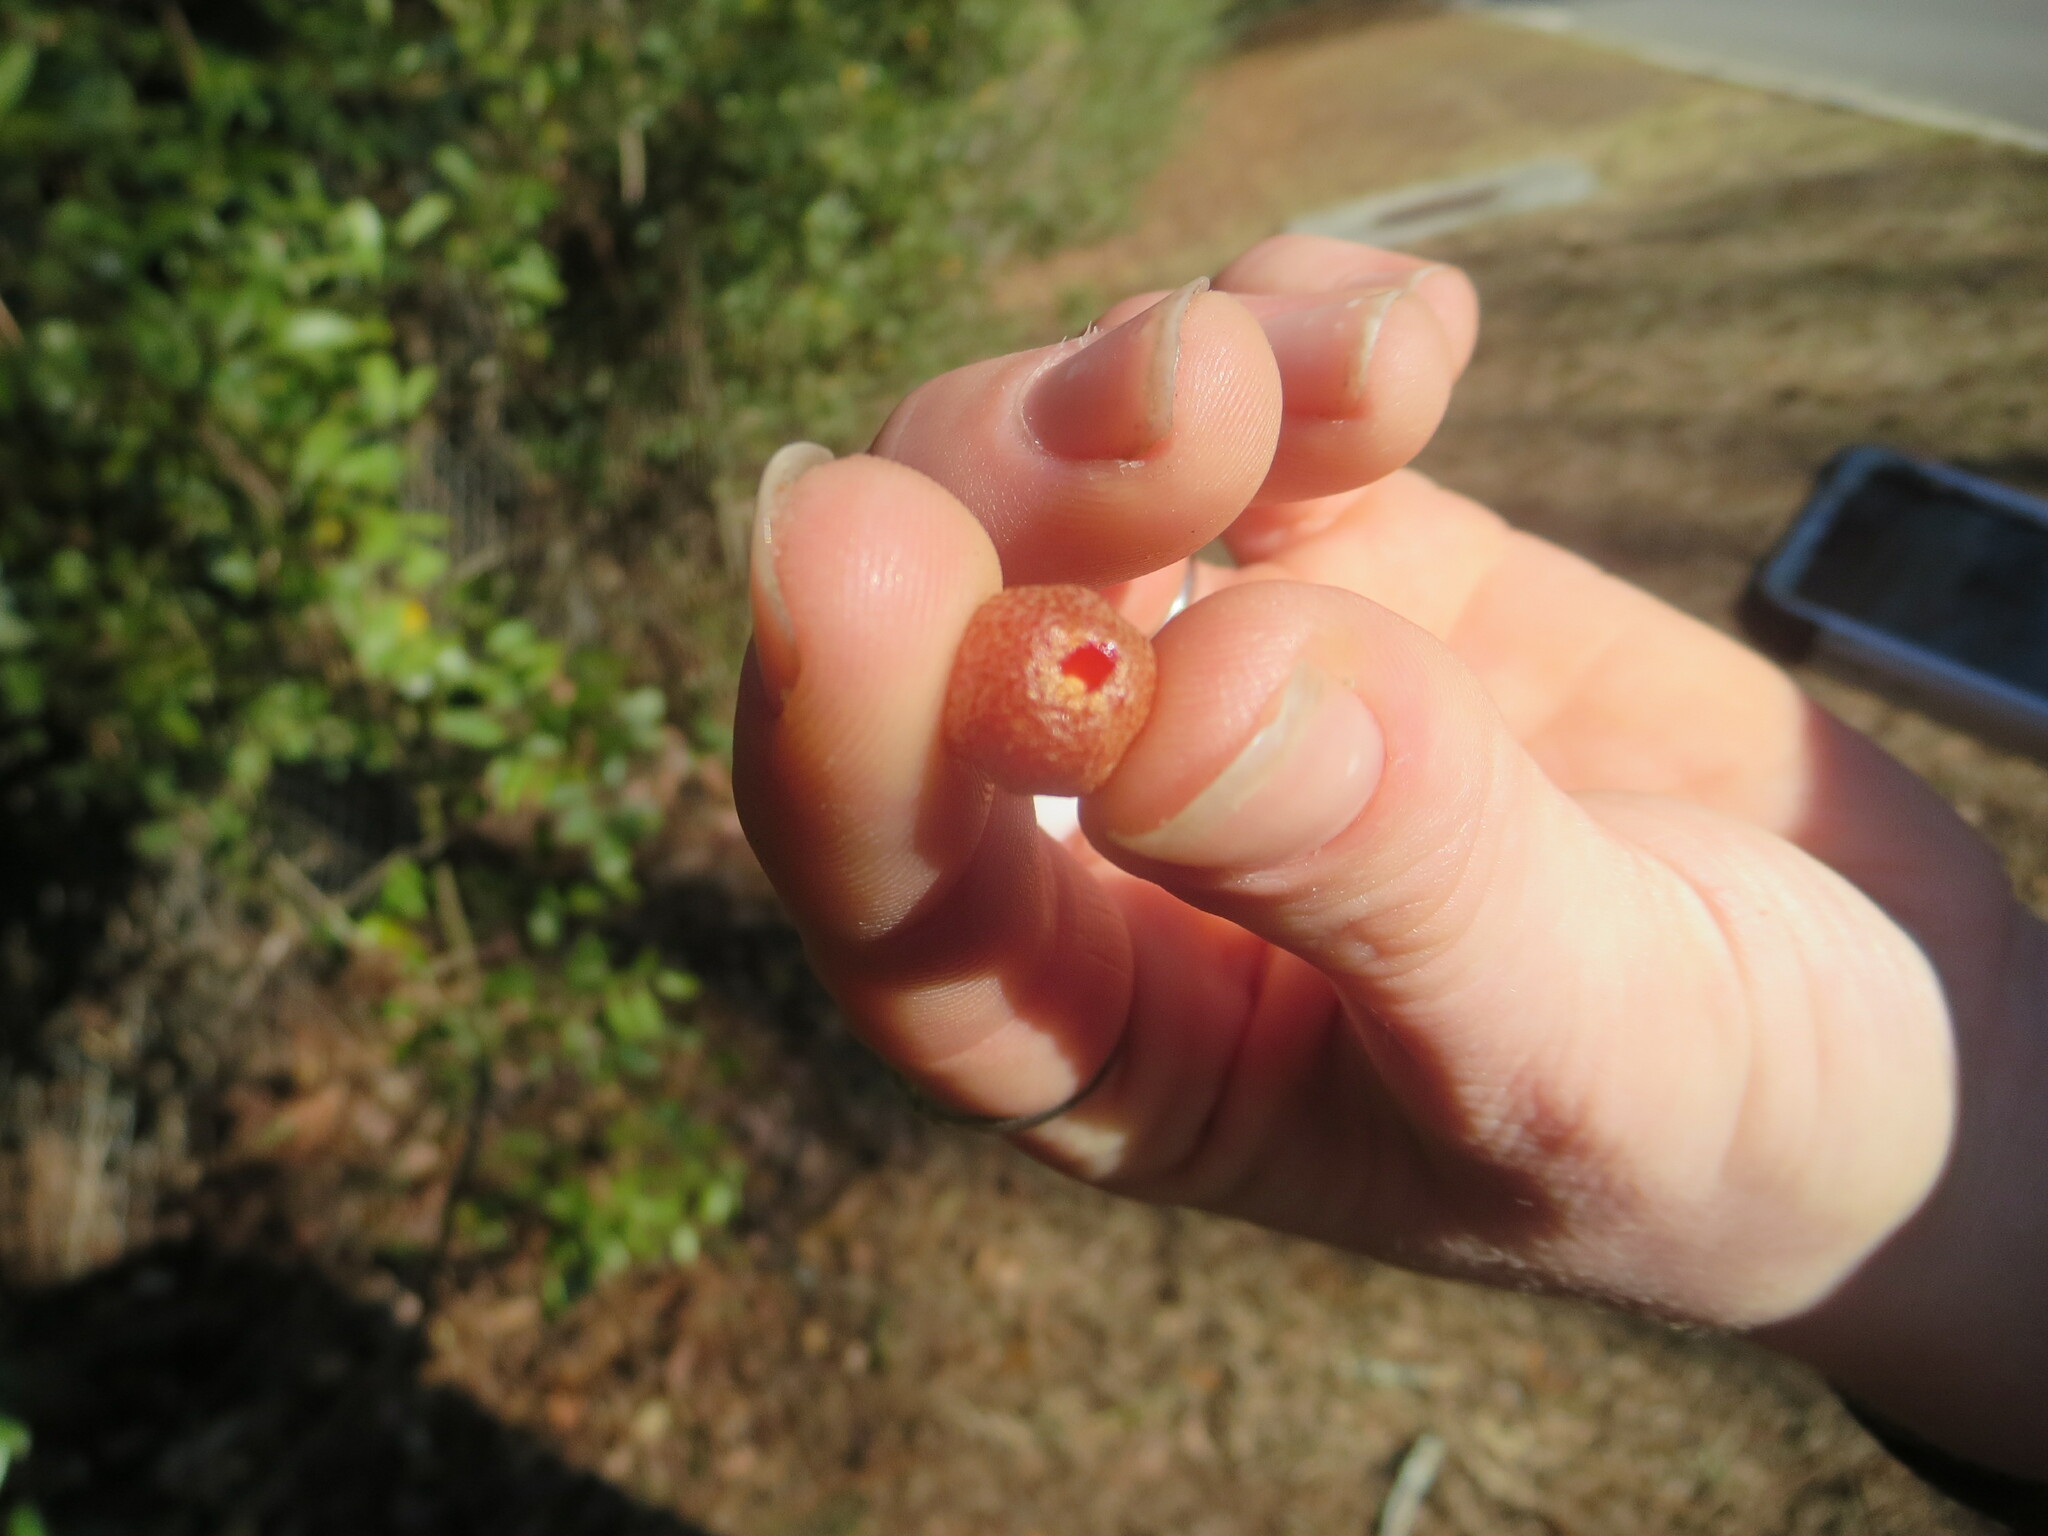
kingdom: Plantae
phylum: Tracheophyta
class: Magnoliopsida
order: Rosales
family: Elaeagnaceae
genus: Elaeagnus
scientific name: Elaeagnus pungens
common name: Spiny oleaster
